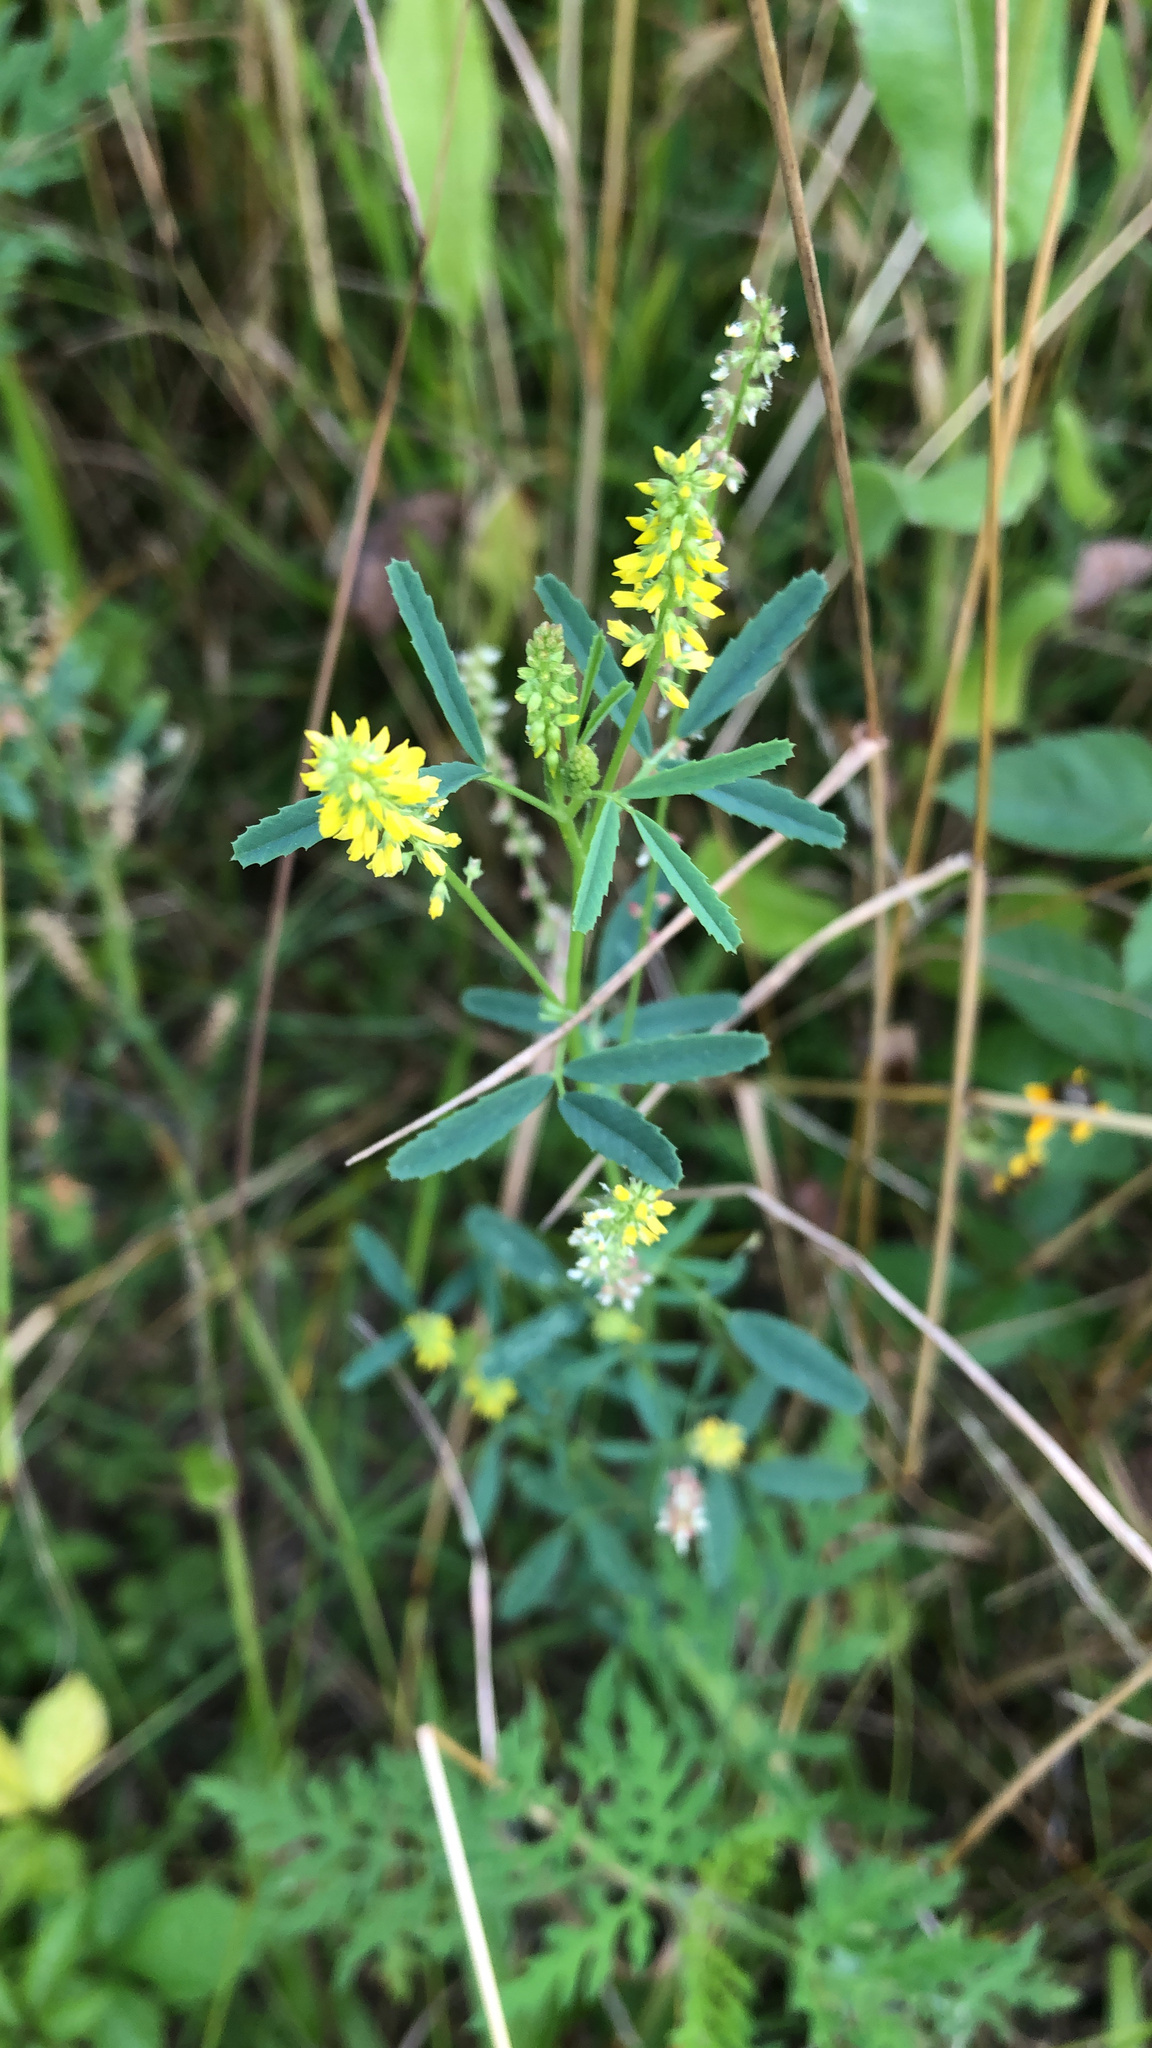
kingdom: Plantae
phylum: Tracheophyta
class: Magnoliopsida
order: Fabales
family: Fabaceae
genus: Melilotus
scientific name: Melilotus indicus
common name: Small melilot
